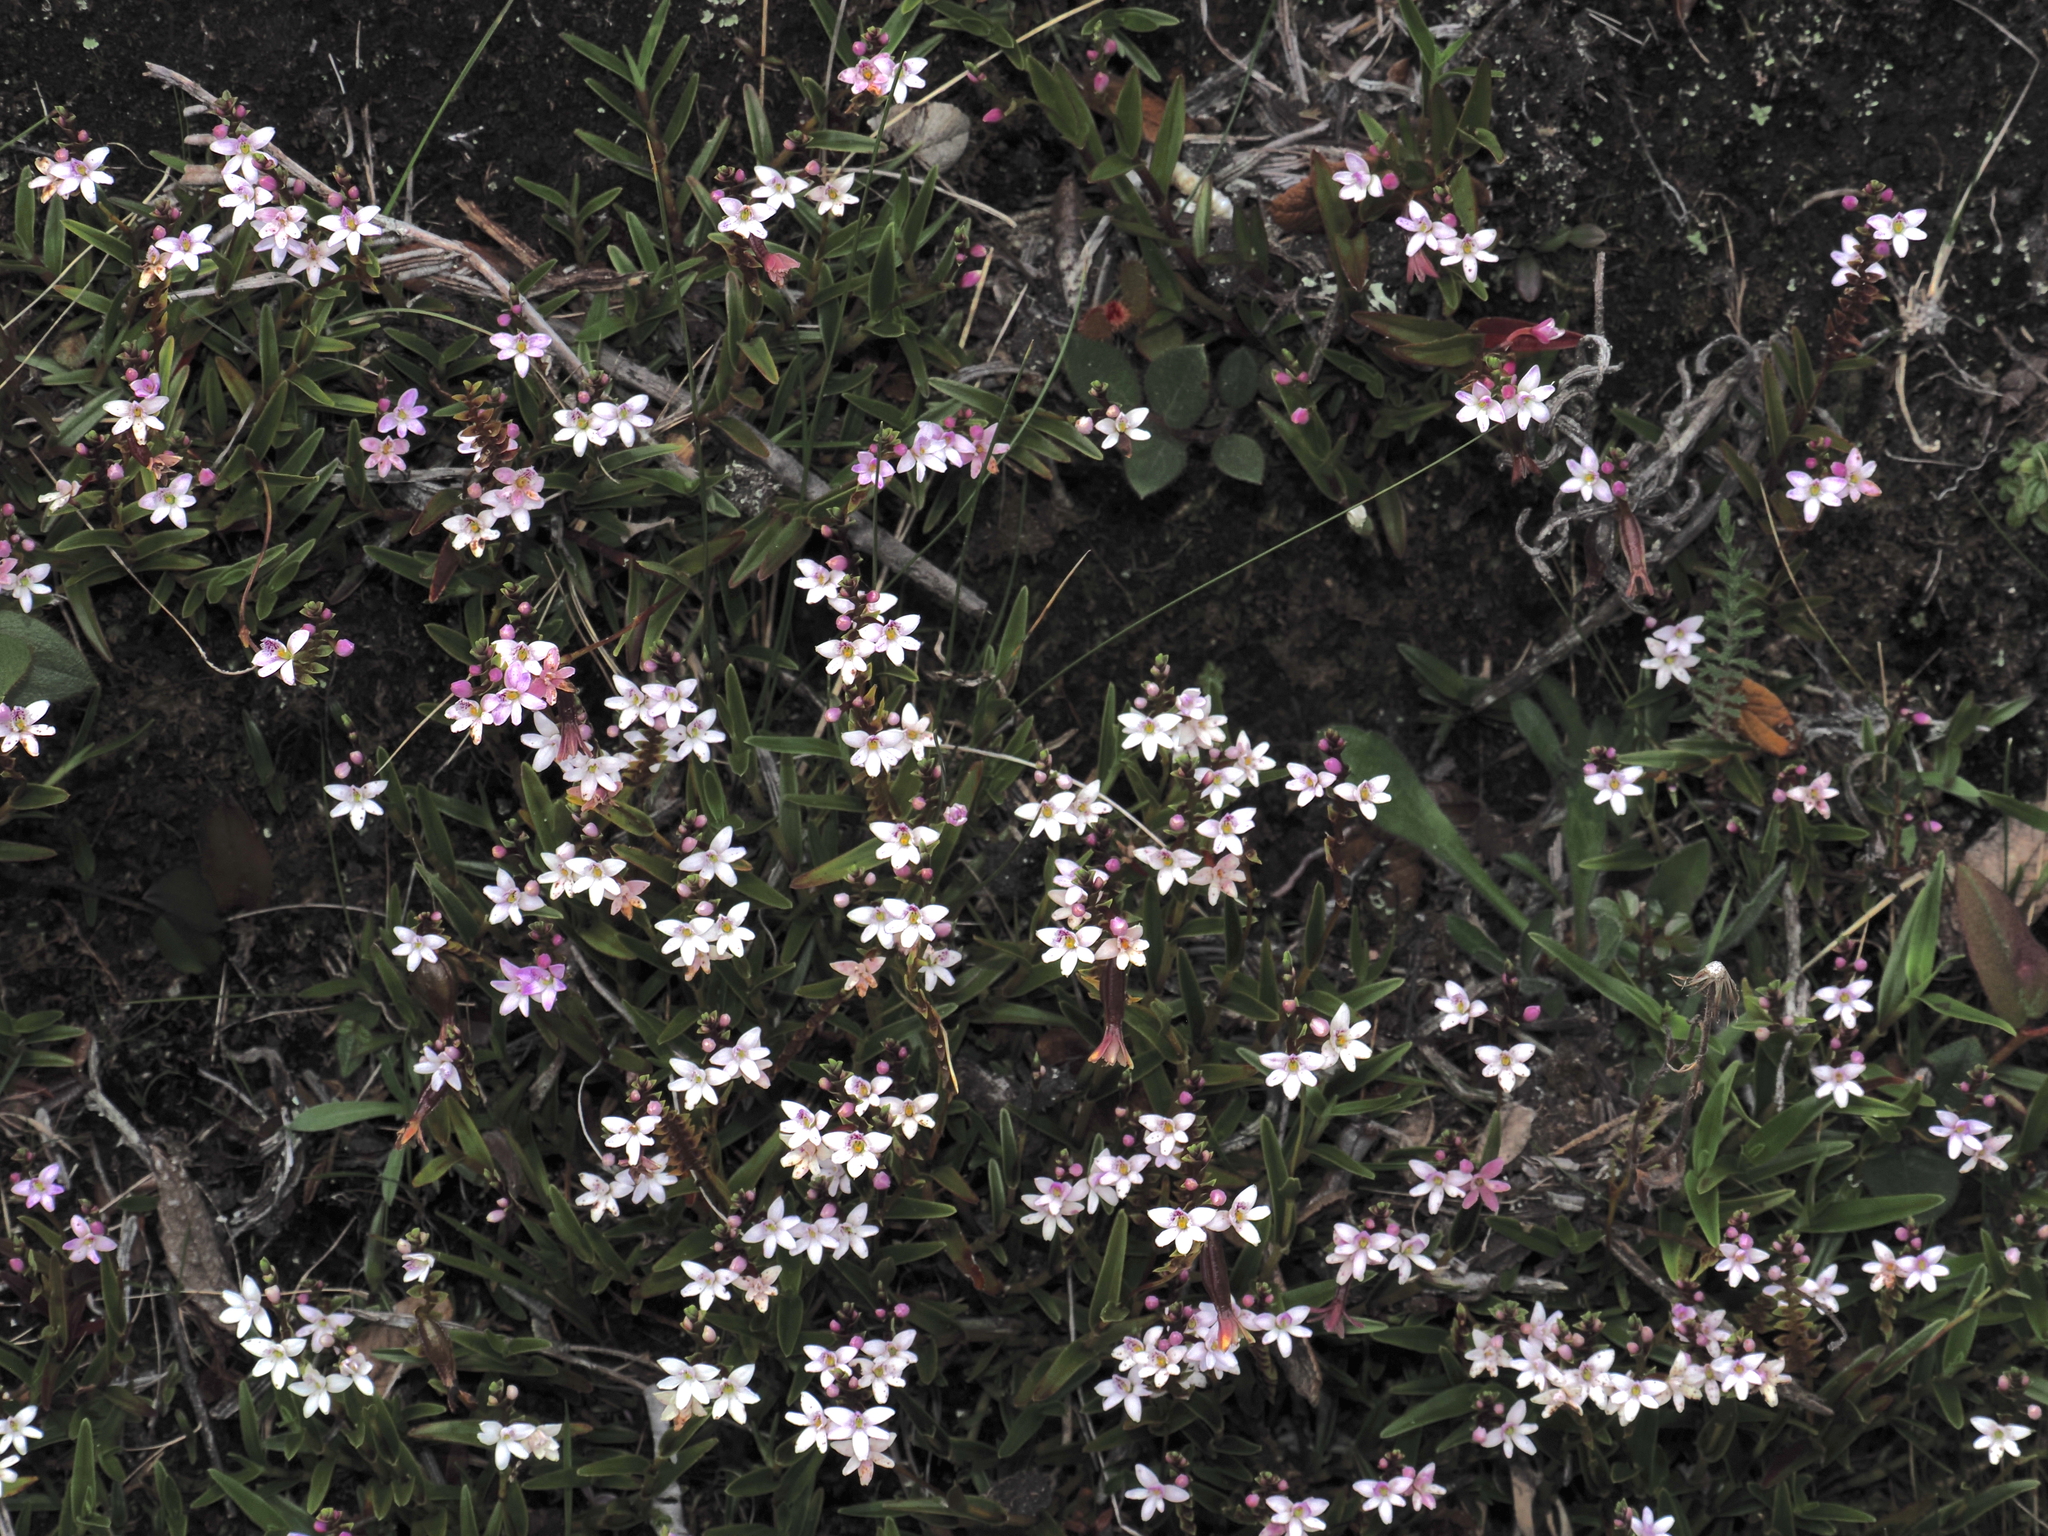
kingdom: Plantae
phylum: Tracheophyta
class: Liliopsida
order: Asparagales
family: Orchidaceae
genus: Epidendrum
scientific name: Epidendrum fimbriatum
